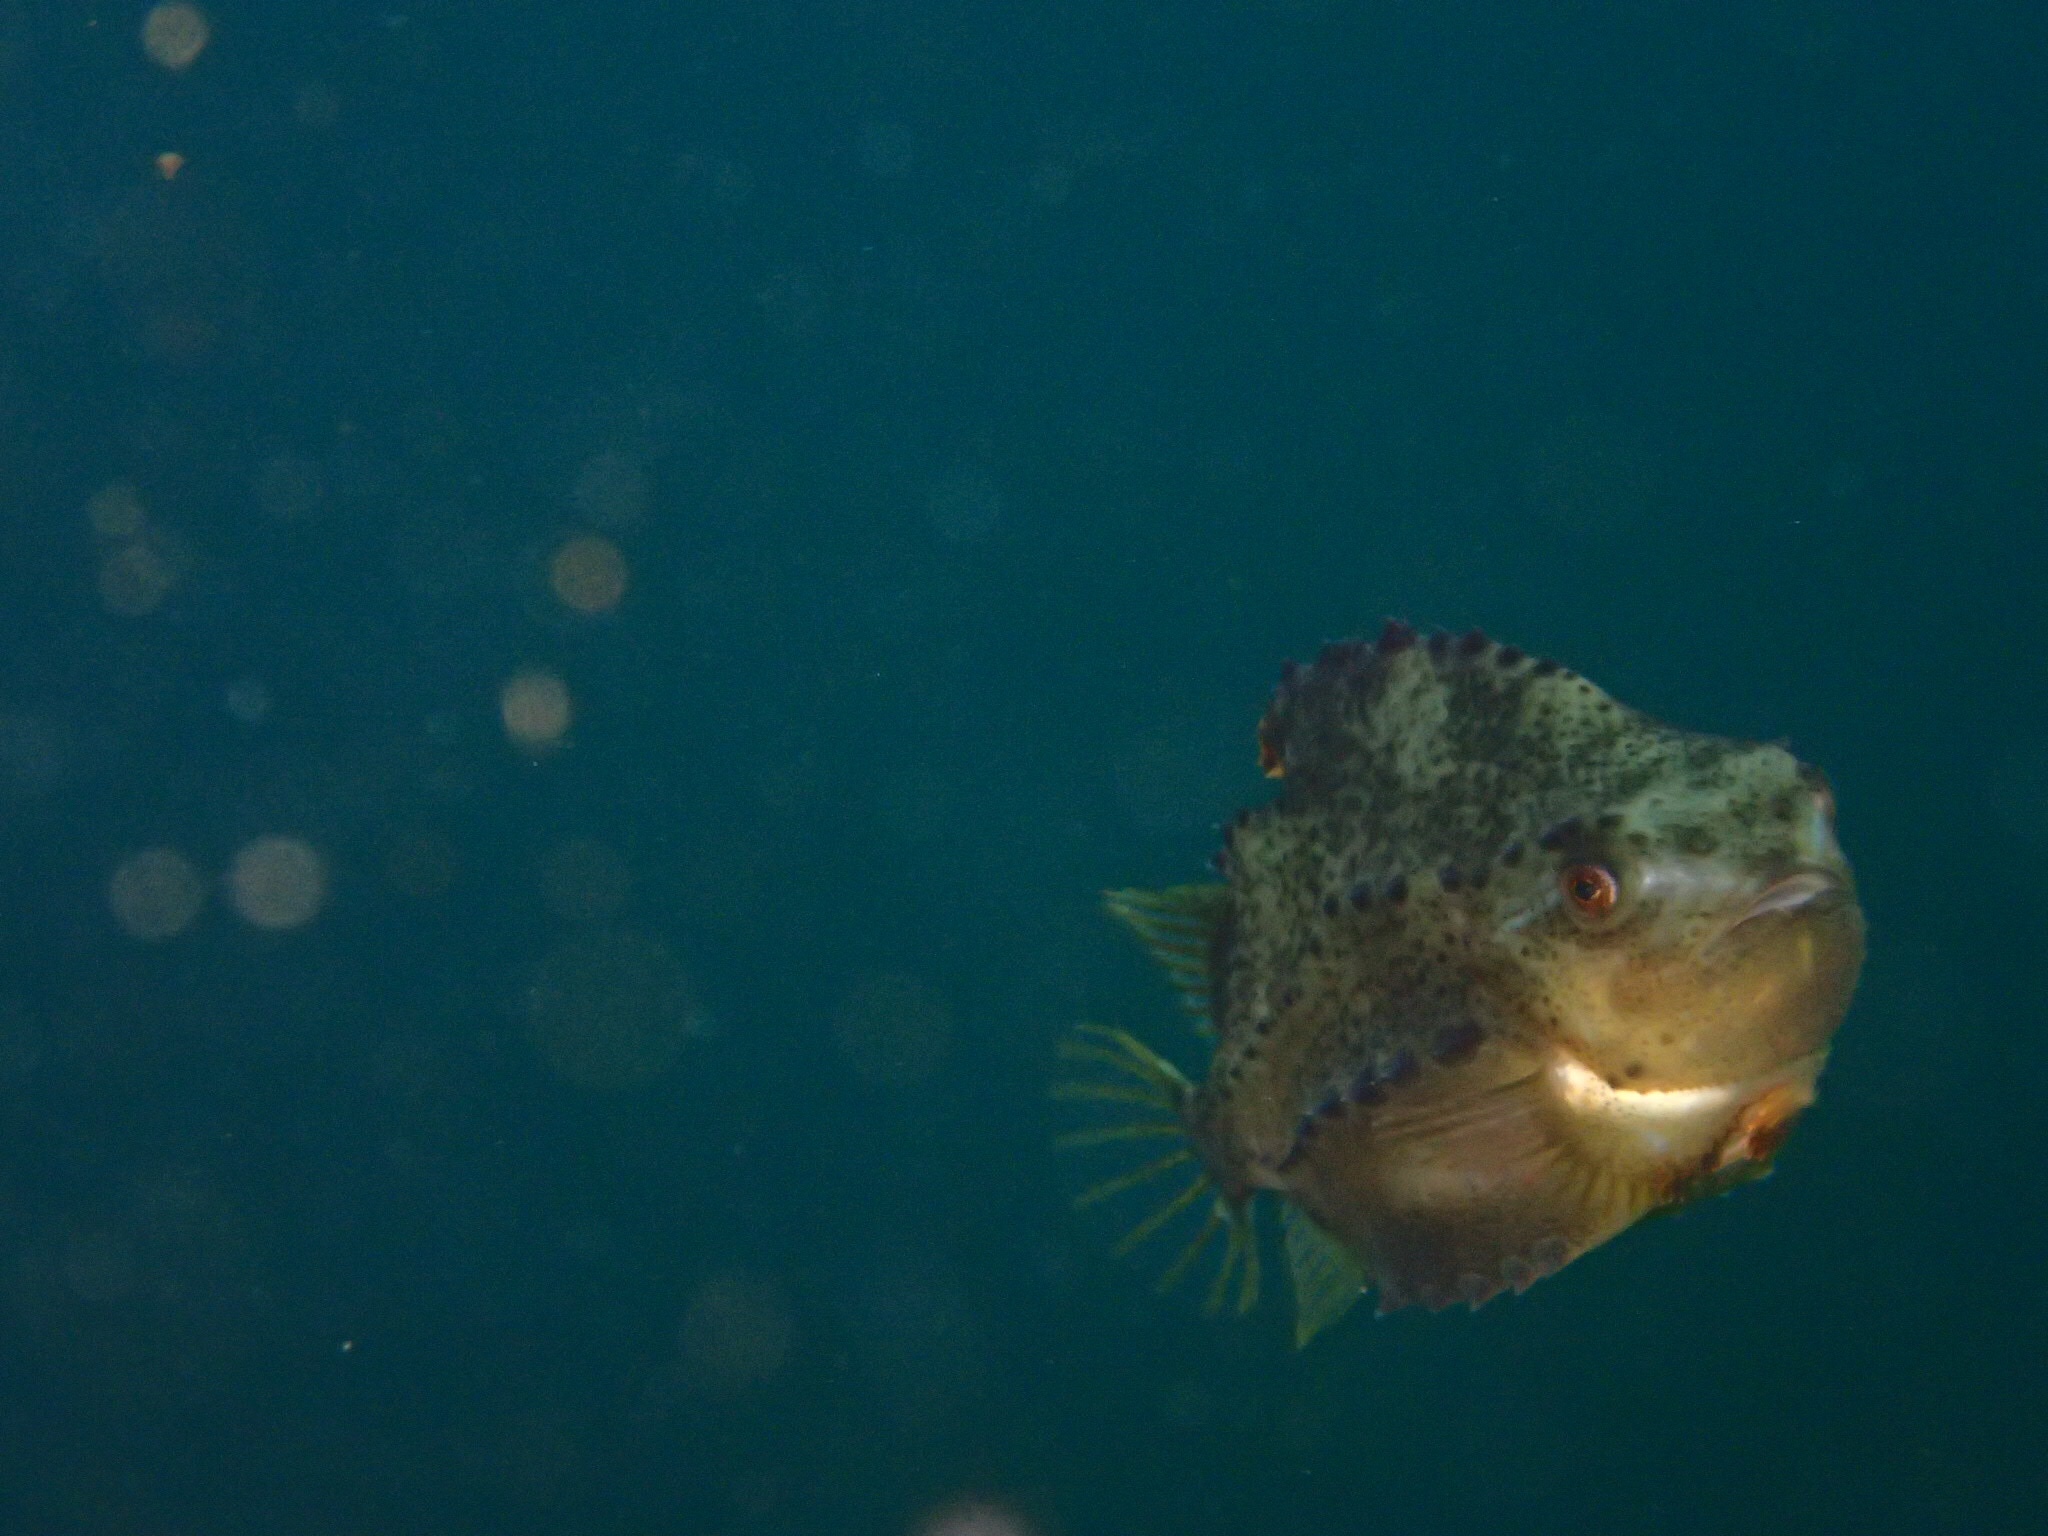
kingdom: Animalia
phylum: Chordata
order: Scorpaeniformes
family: Cyclopteridae
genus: Cyclopterus
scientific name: Cyclopterus lumpus
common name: Lumpsucker
